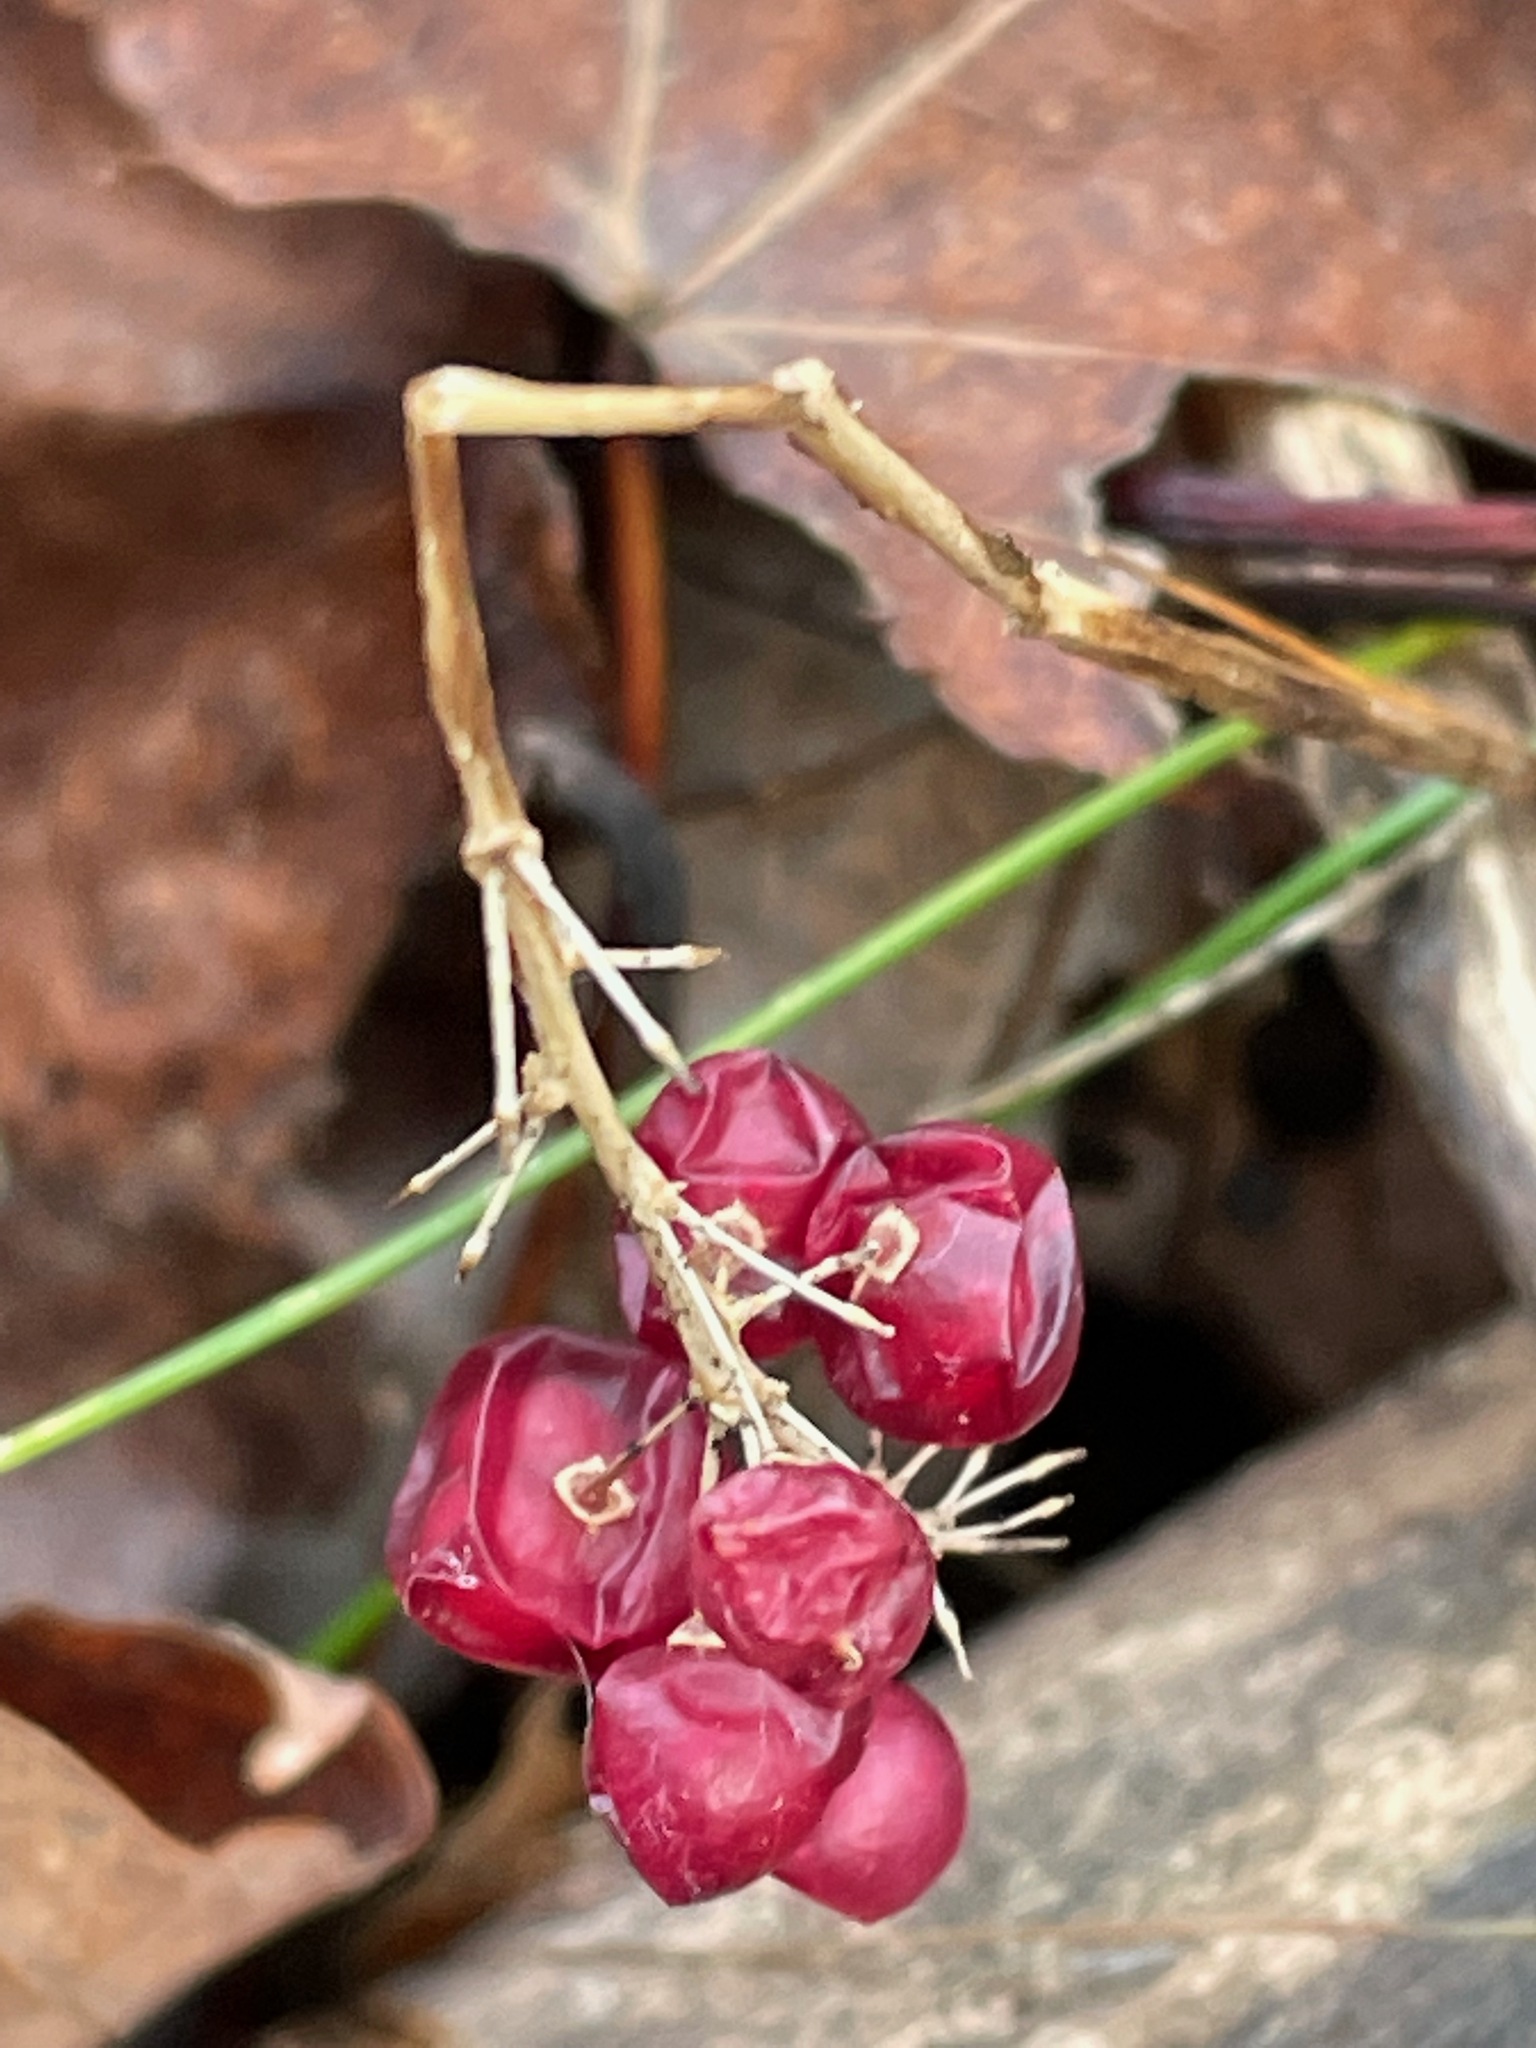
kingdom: Plantae
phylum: Tracheophyta
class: Liliopsida
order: Asparagales
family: Asparagaceae
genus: Maianthemum
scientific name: Maianthemum canadense
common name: False lily-of-the-valley
